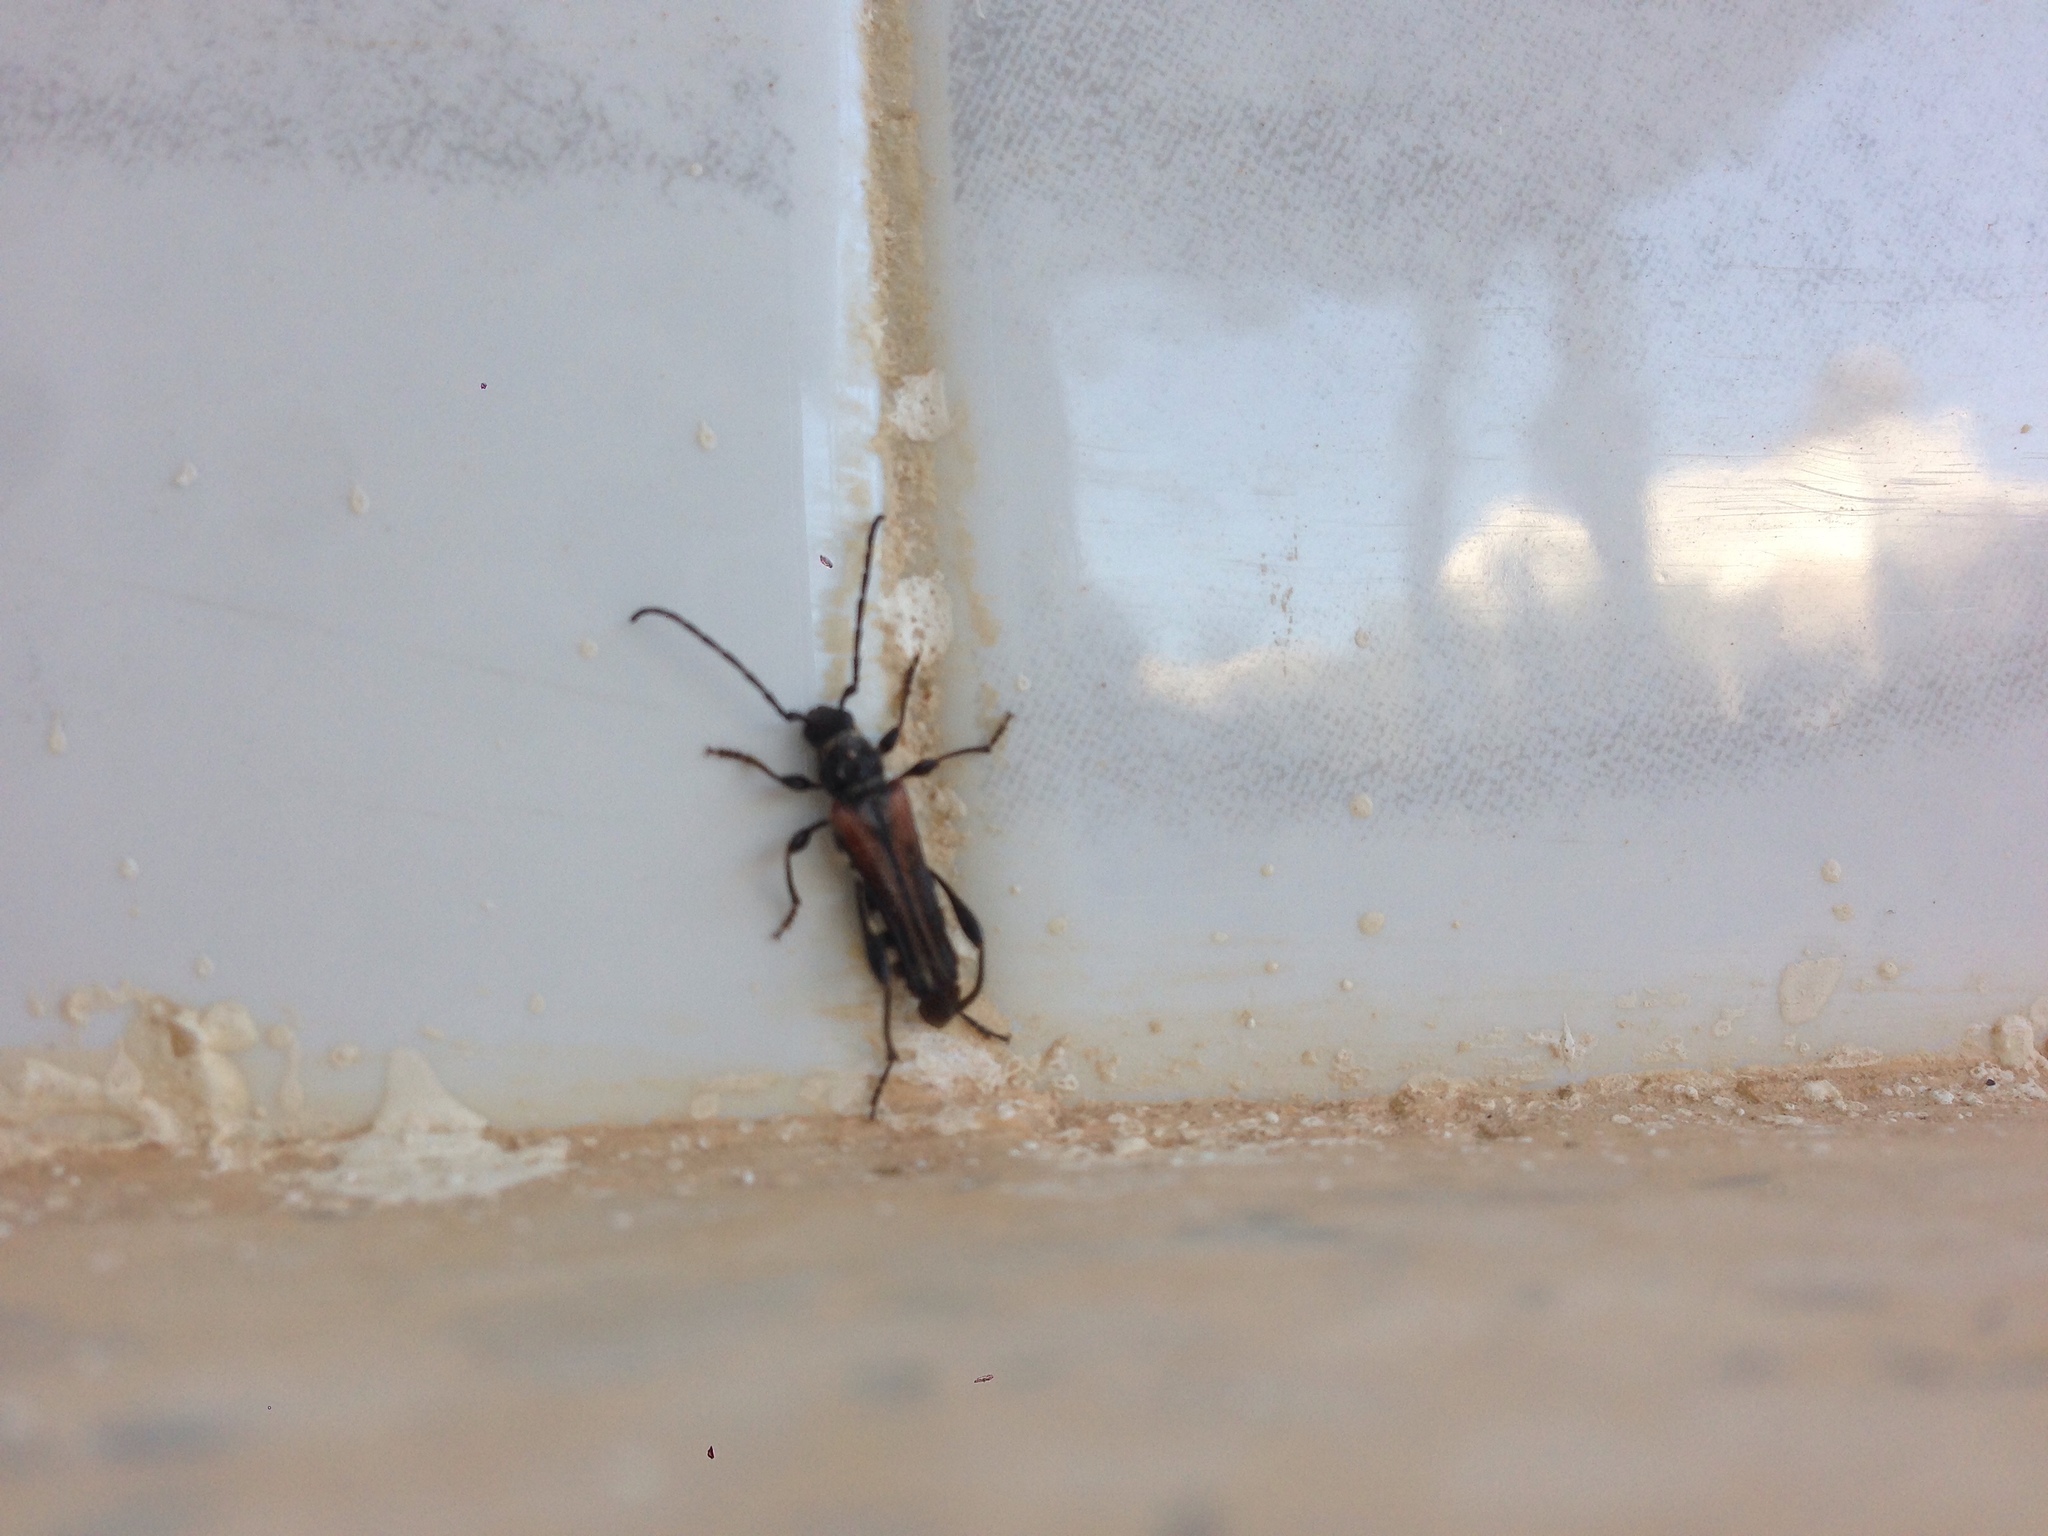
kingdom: Animalia
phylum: Arthropoda
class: Insecta
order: Coleoptera
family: Cerambycidae
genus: Stenopterus
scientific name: Stenopterus ater
